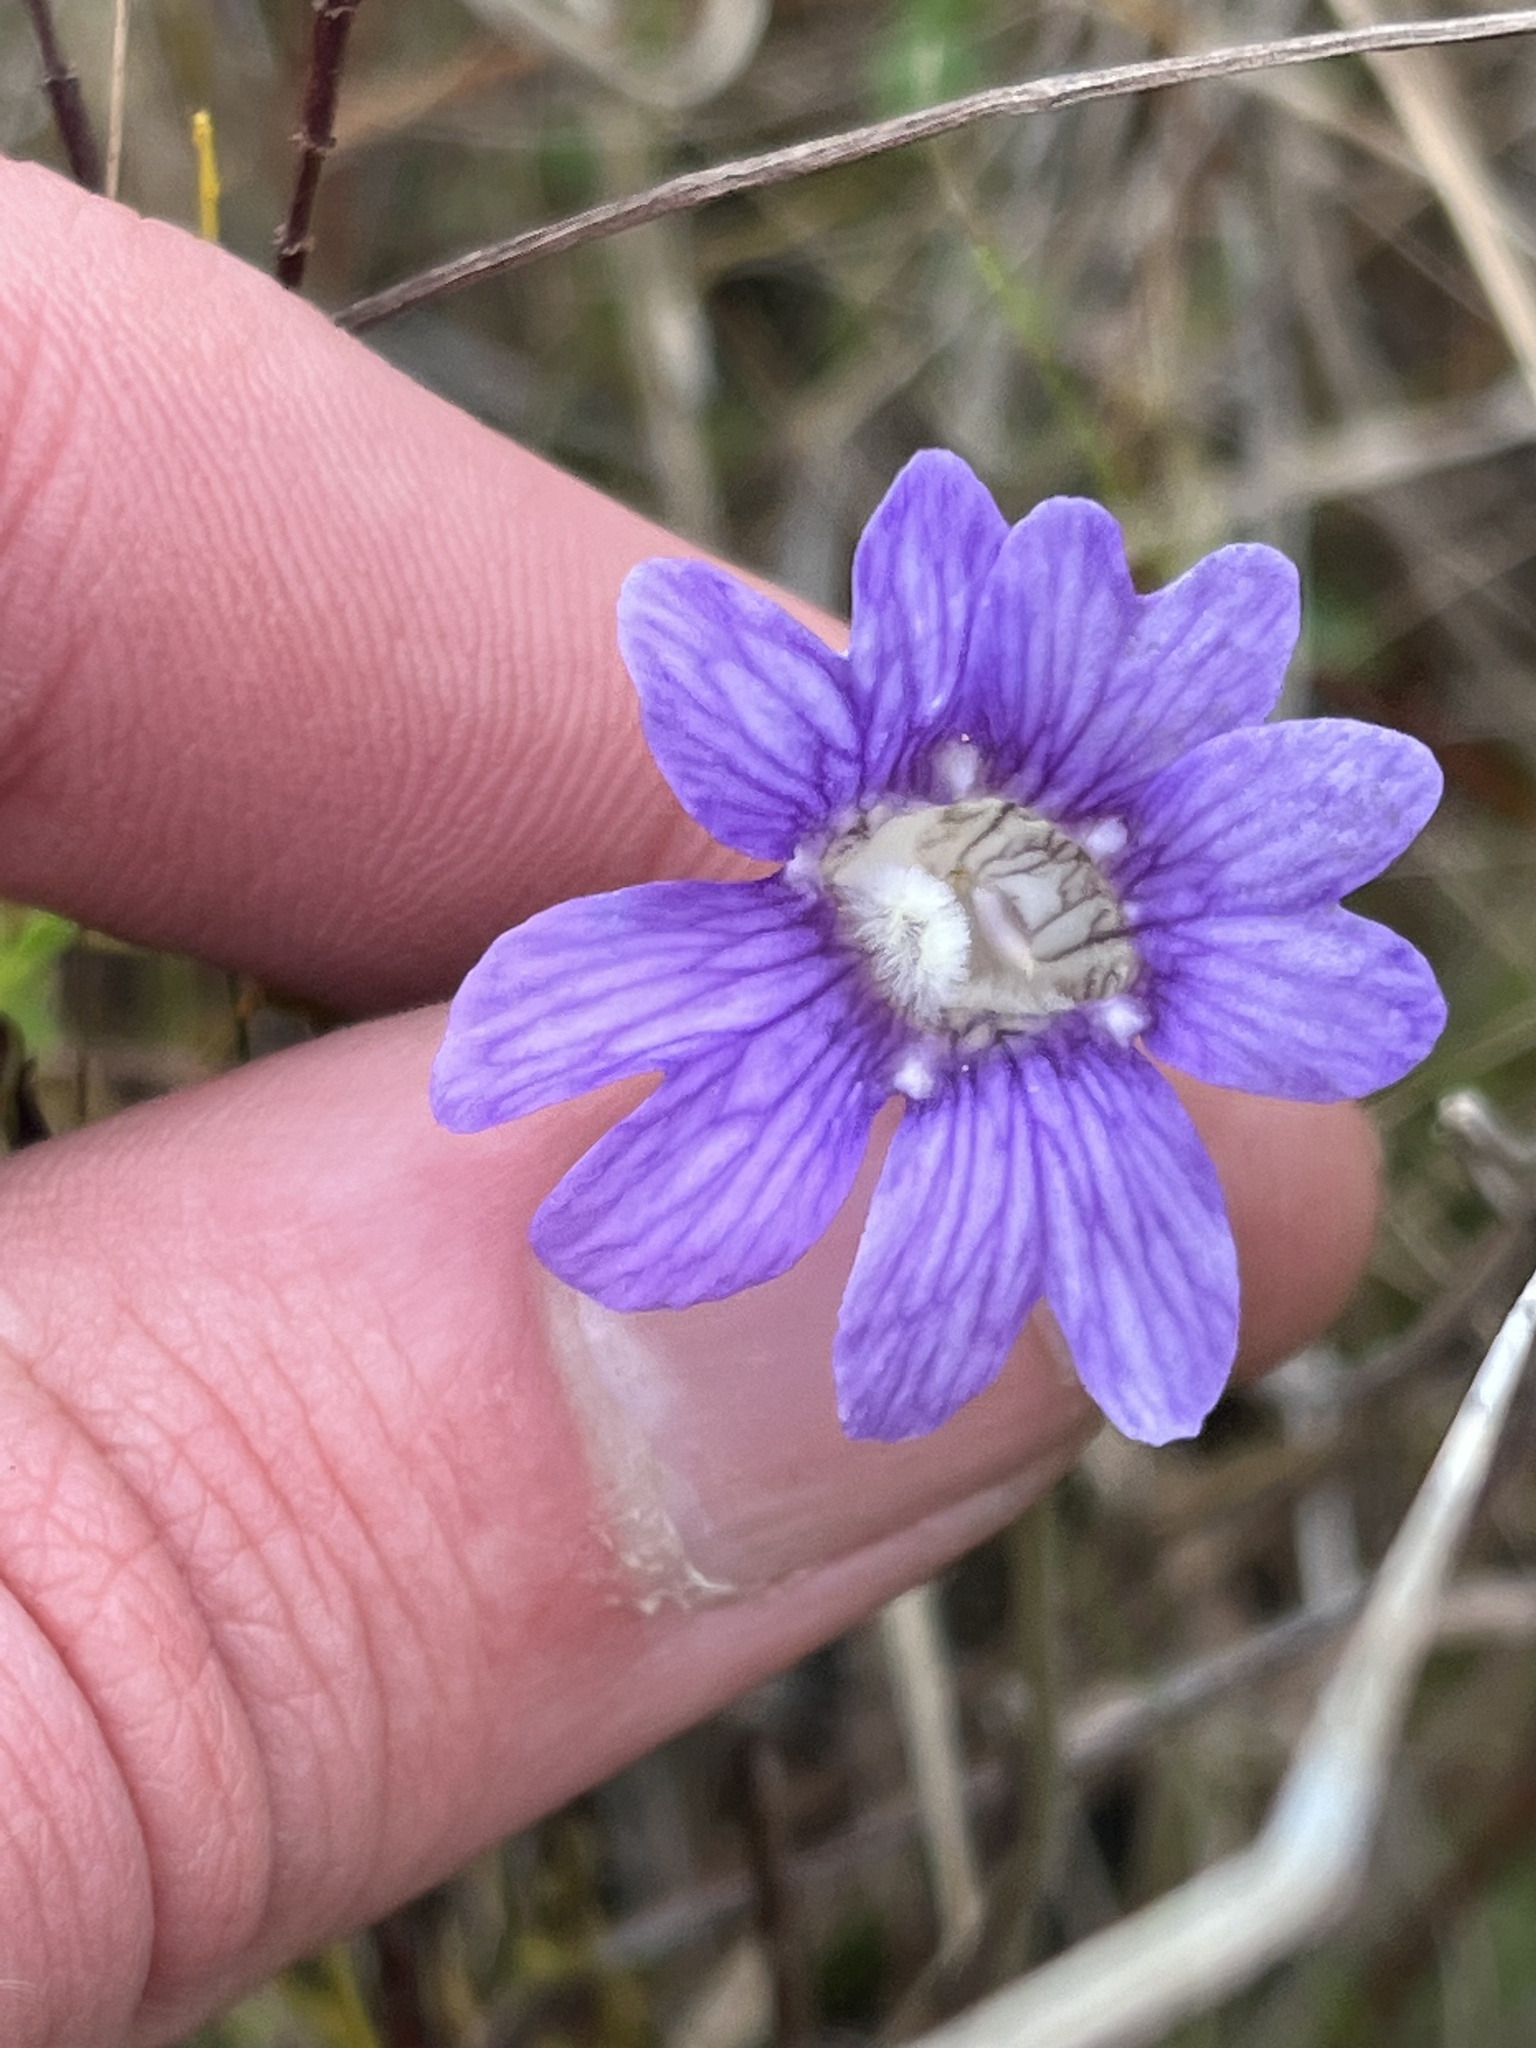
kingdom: Plantae
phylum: Tracheophyta
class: Magnoliopsida
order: Lamiales
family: Lentibulariaceae
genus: Pinguicula
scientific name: Pinguicula caerulea
